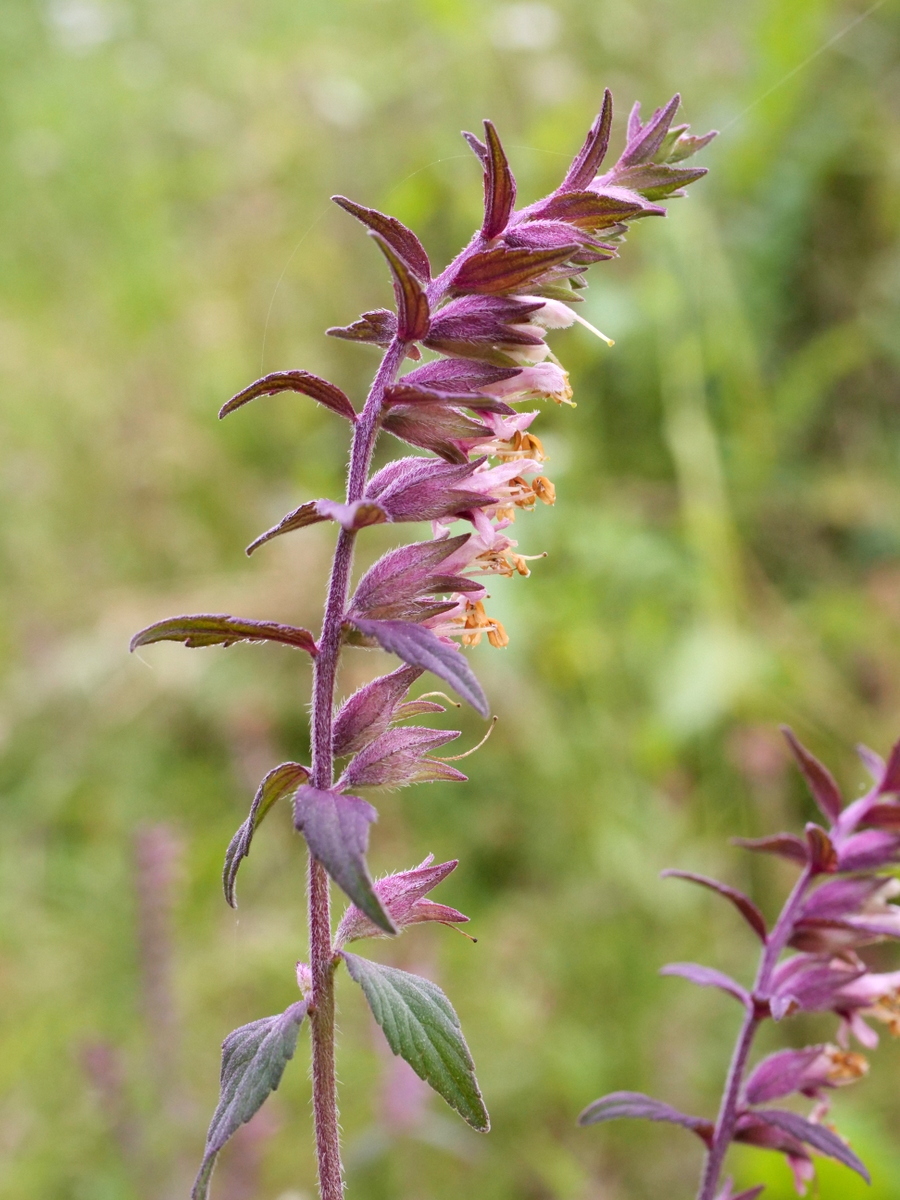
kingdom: Plantae
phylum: Tracheophyta
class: Magnoliopsida
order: Lamiales
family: Orobanchaceae
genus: Odontites
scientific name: Odontites vulgaris
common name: Broomrape
